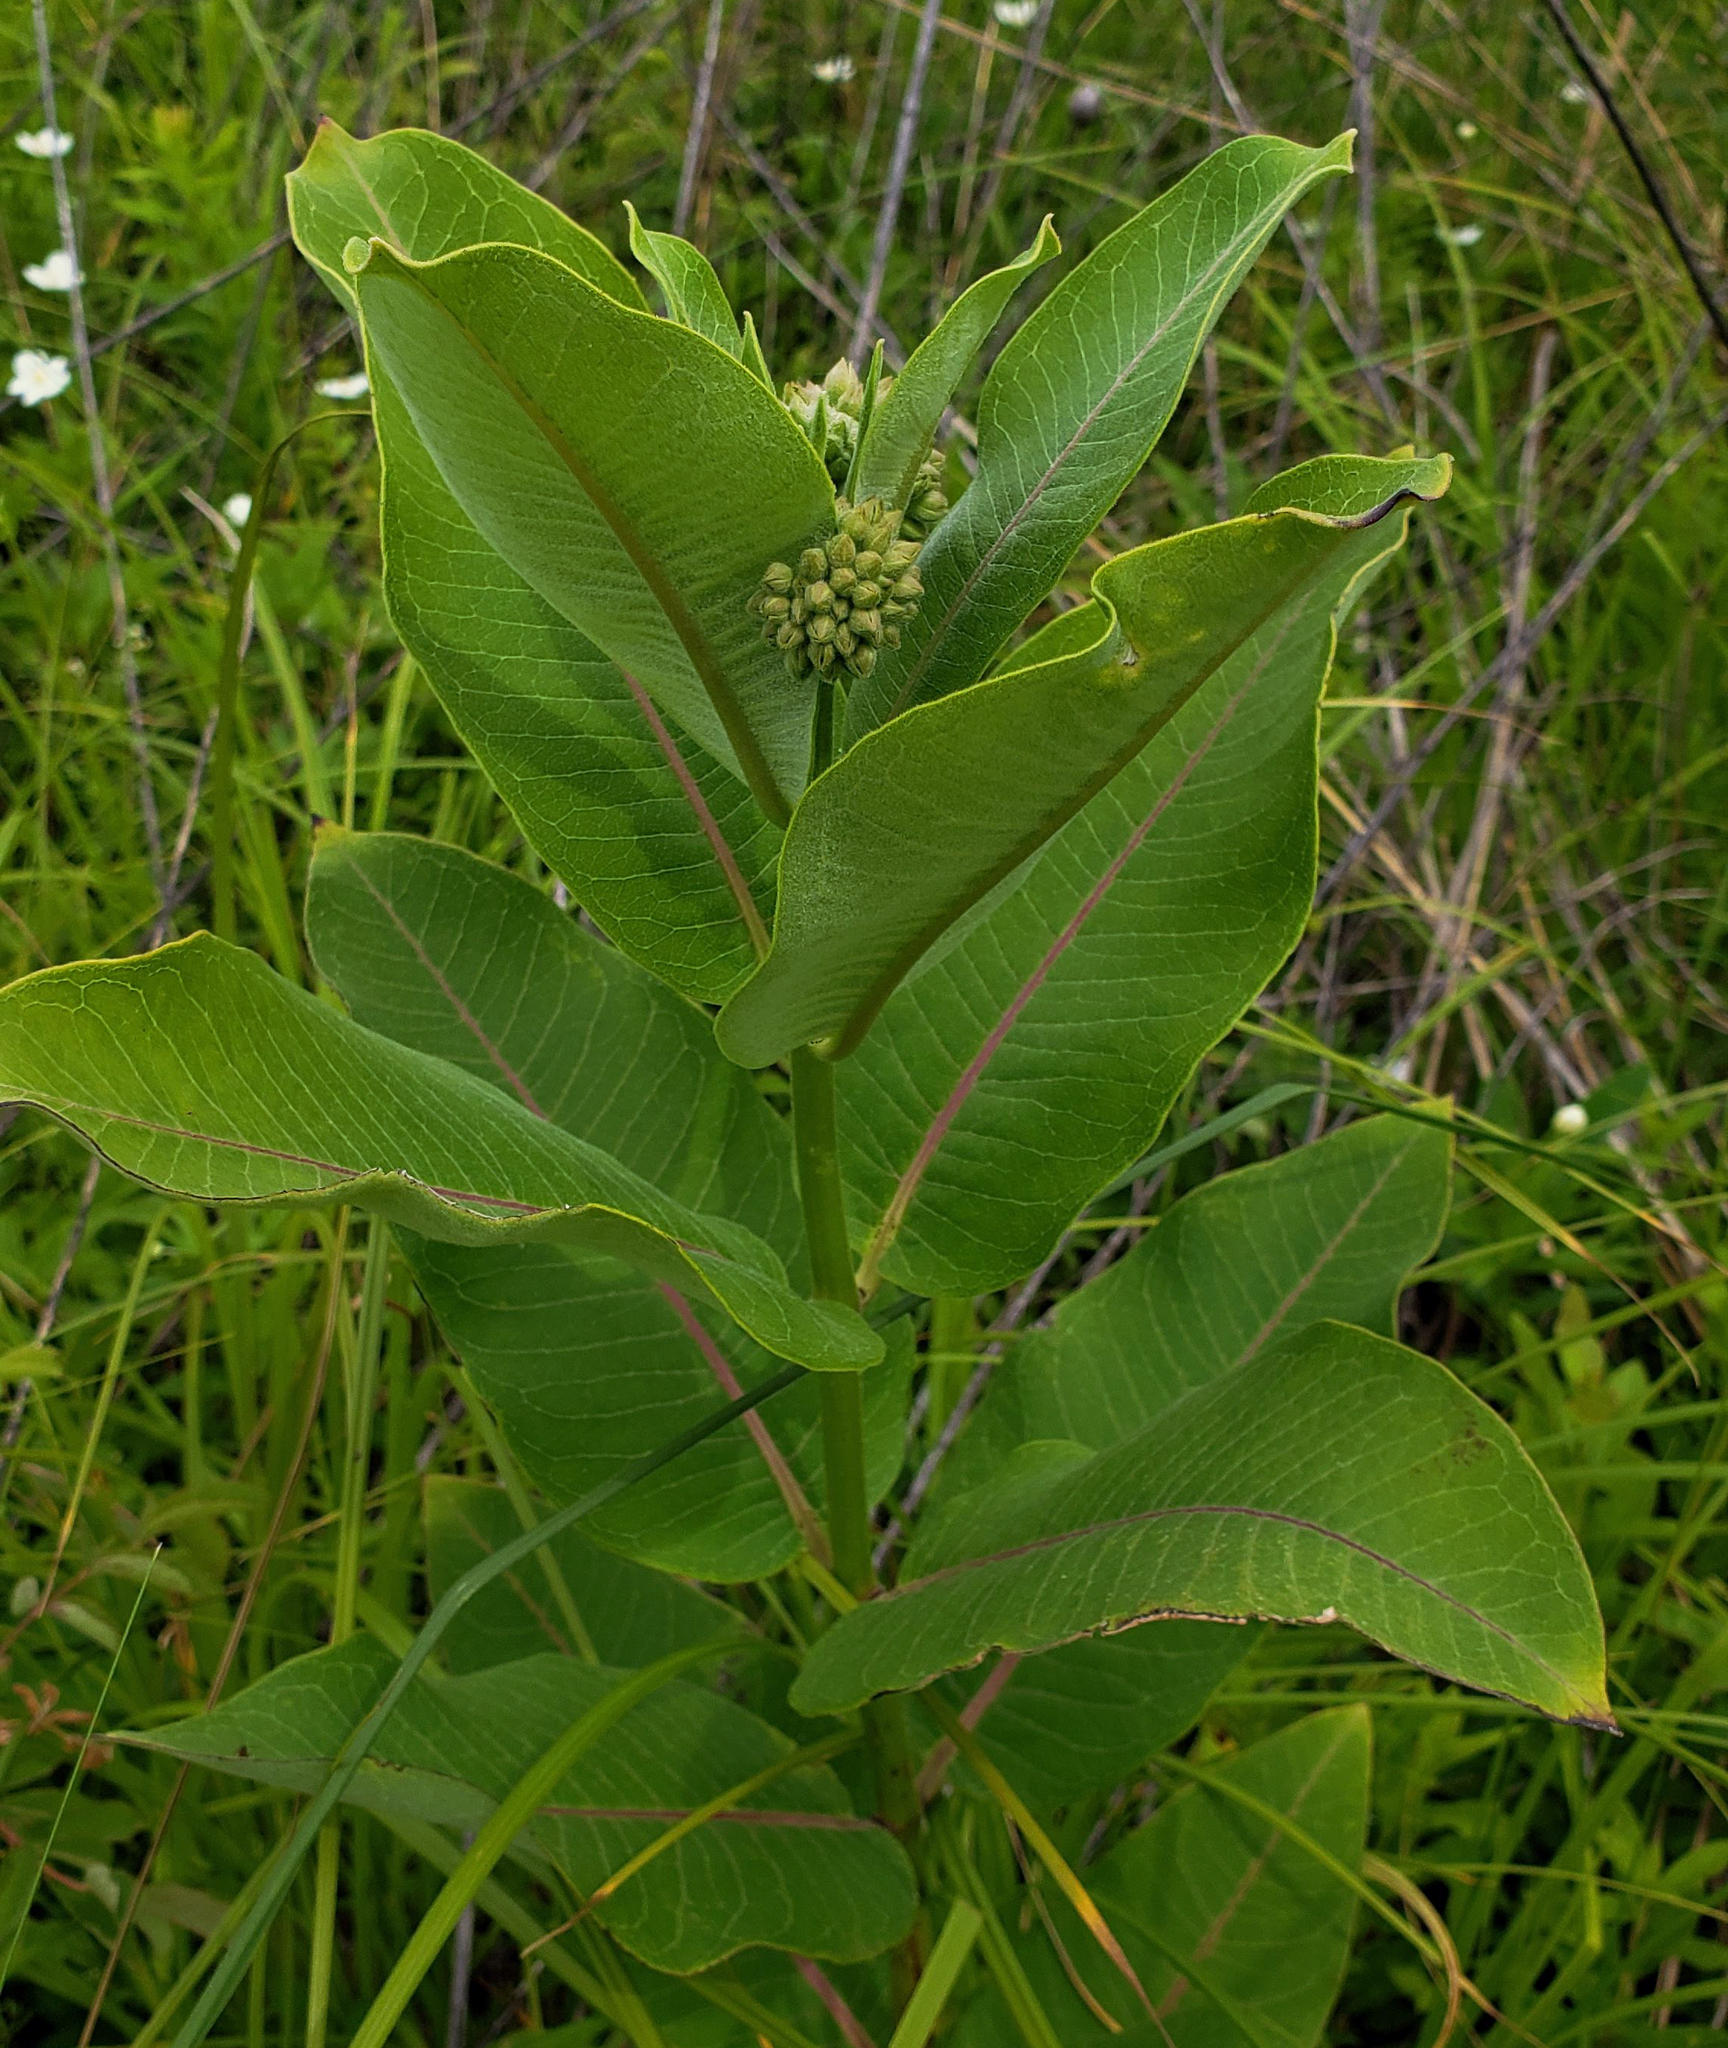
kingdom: Plantae
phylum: Tracheophyta
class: Magnoliopsida
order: Gentianales
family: Apocynaceae
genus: Asclepias
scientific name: Asclepias syriaca
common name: Common milkweed
